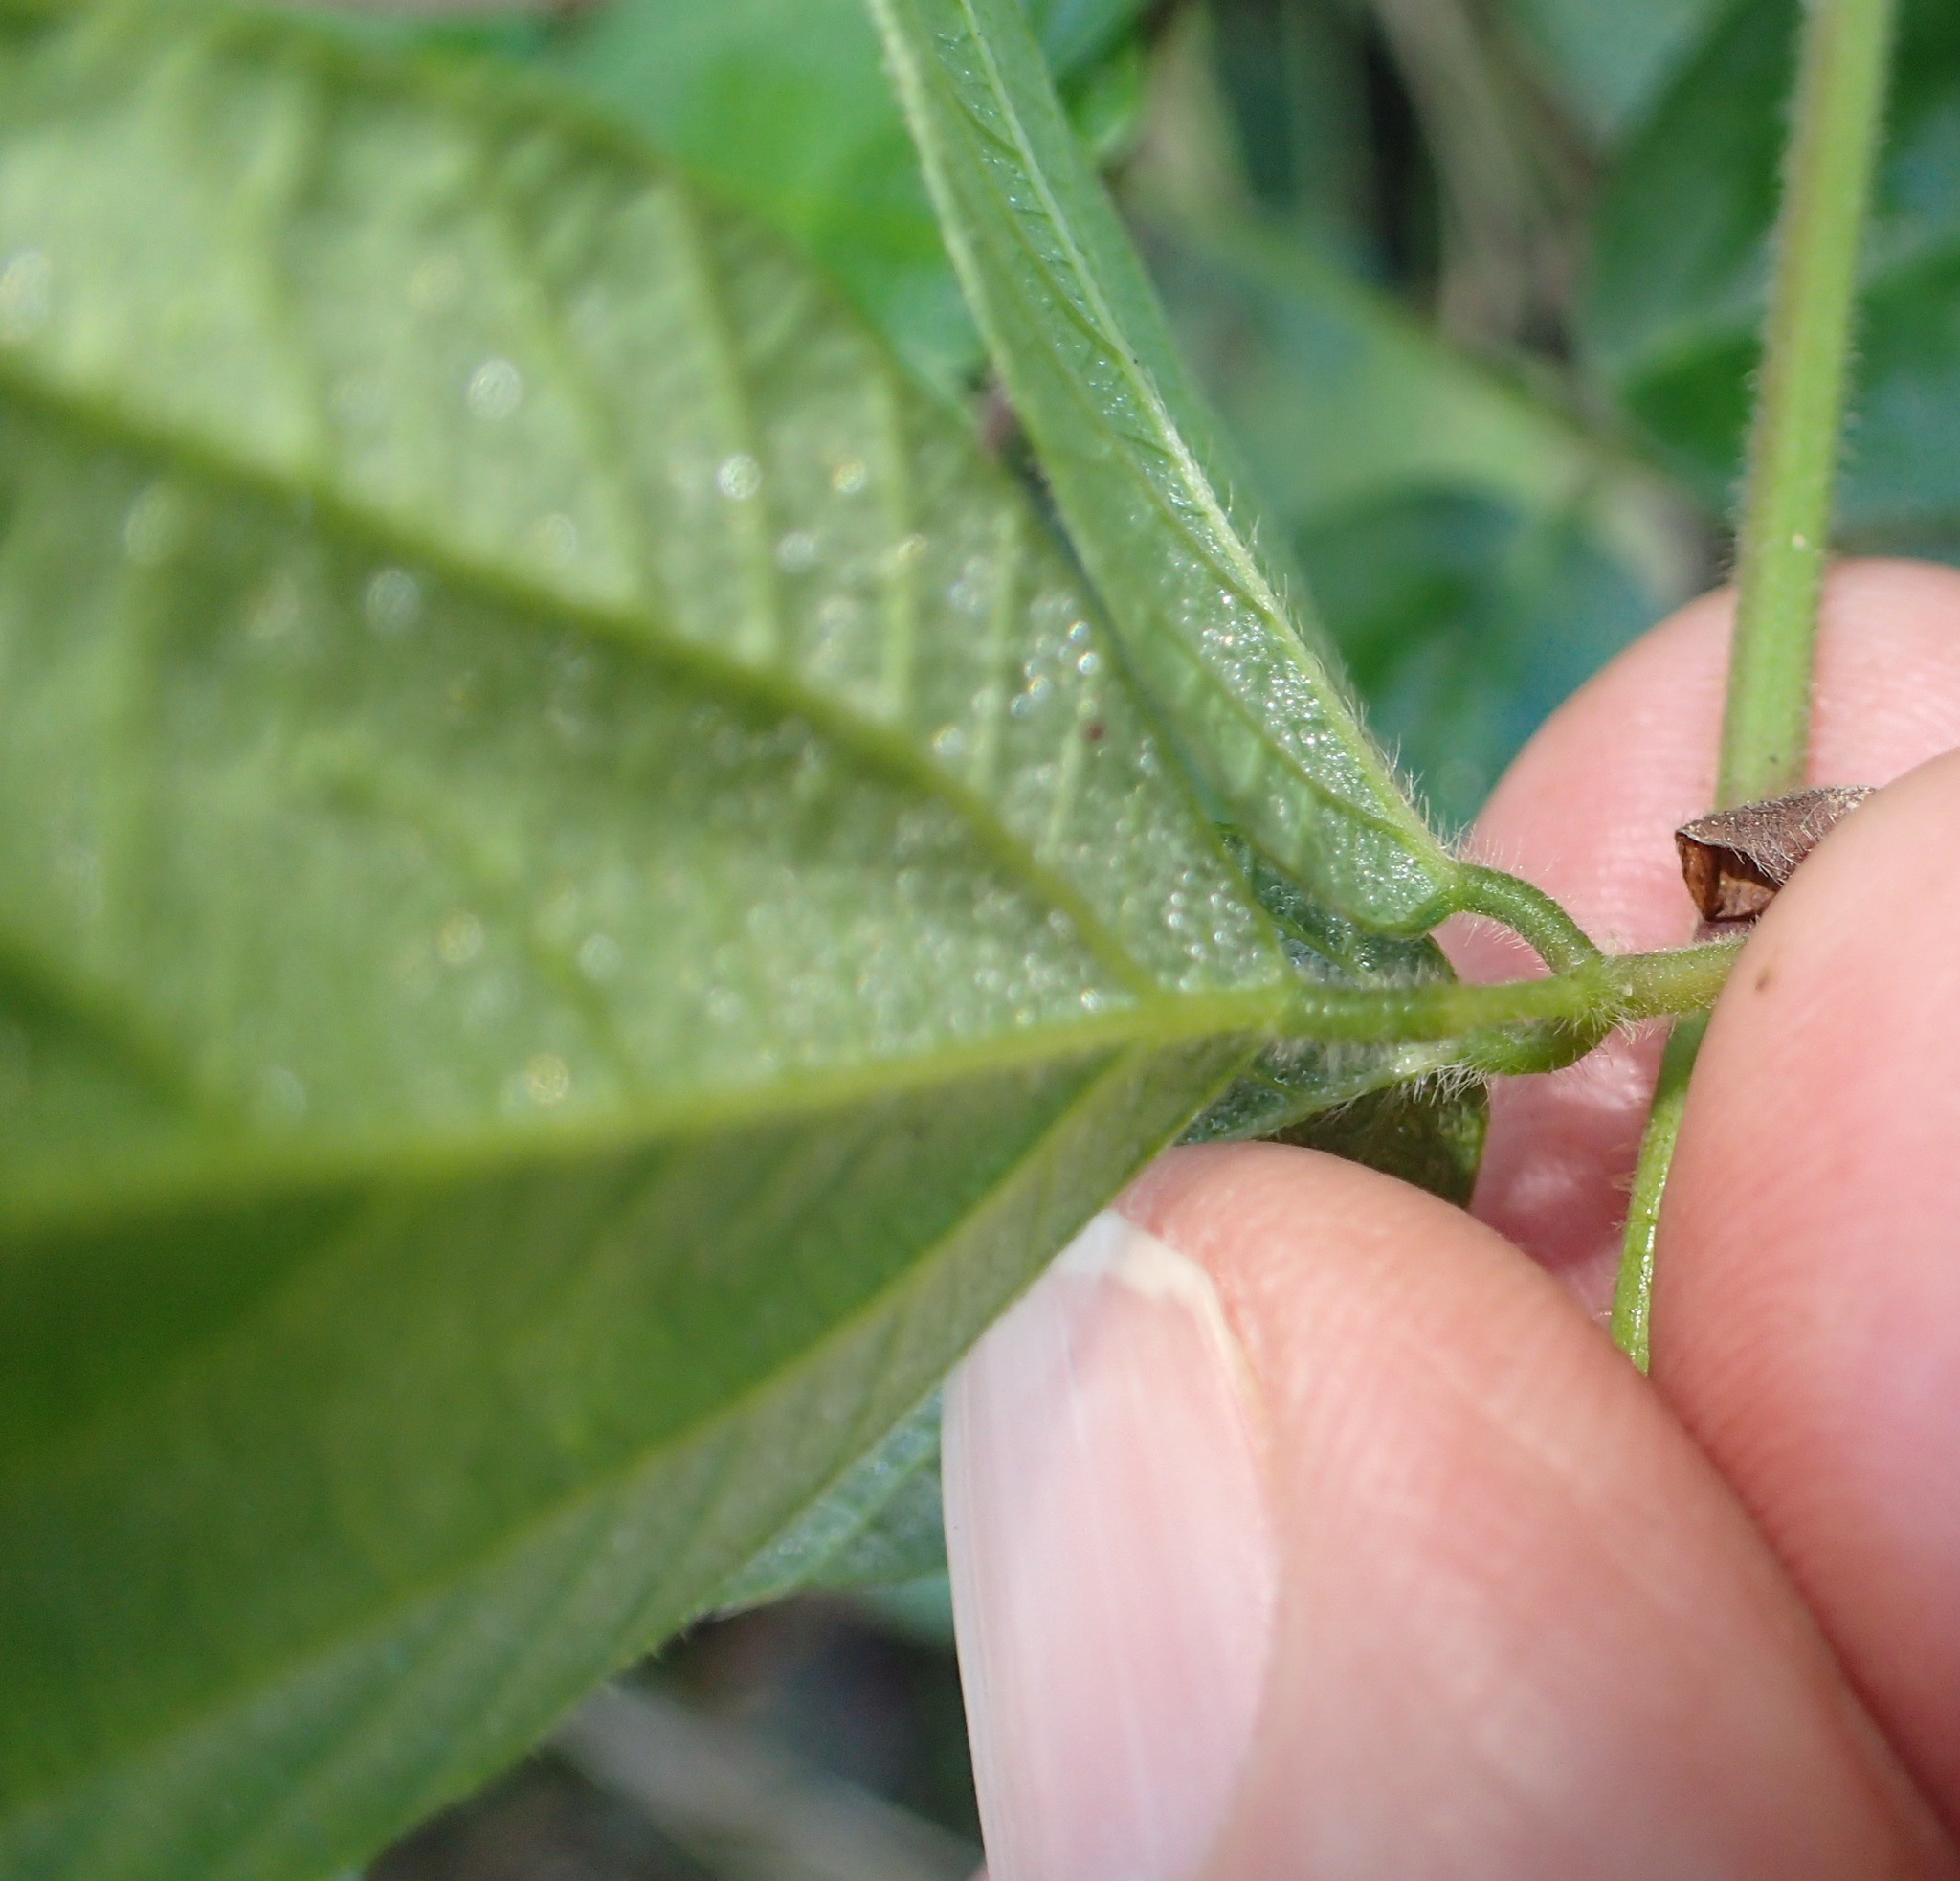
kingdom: Plantae
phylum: Tracheophyta
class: Magnoliopsida
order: Fabales
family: Fabaceae
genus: Hylodesmum
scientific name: Hylodesmum repandum
